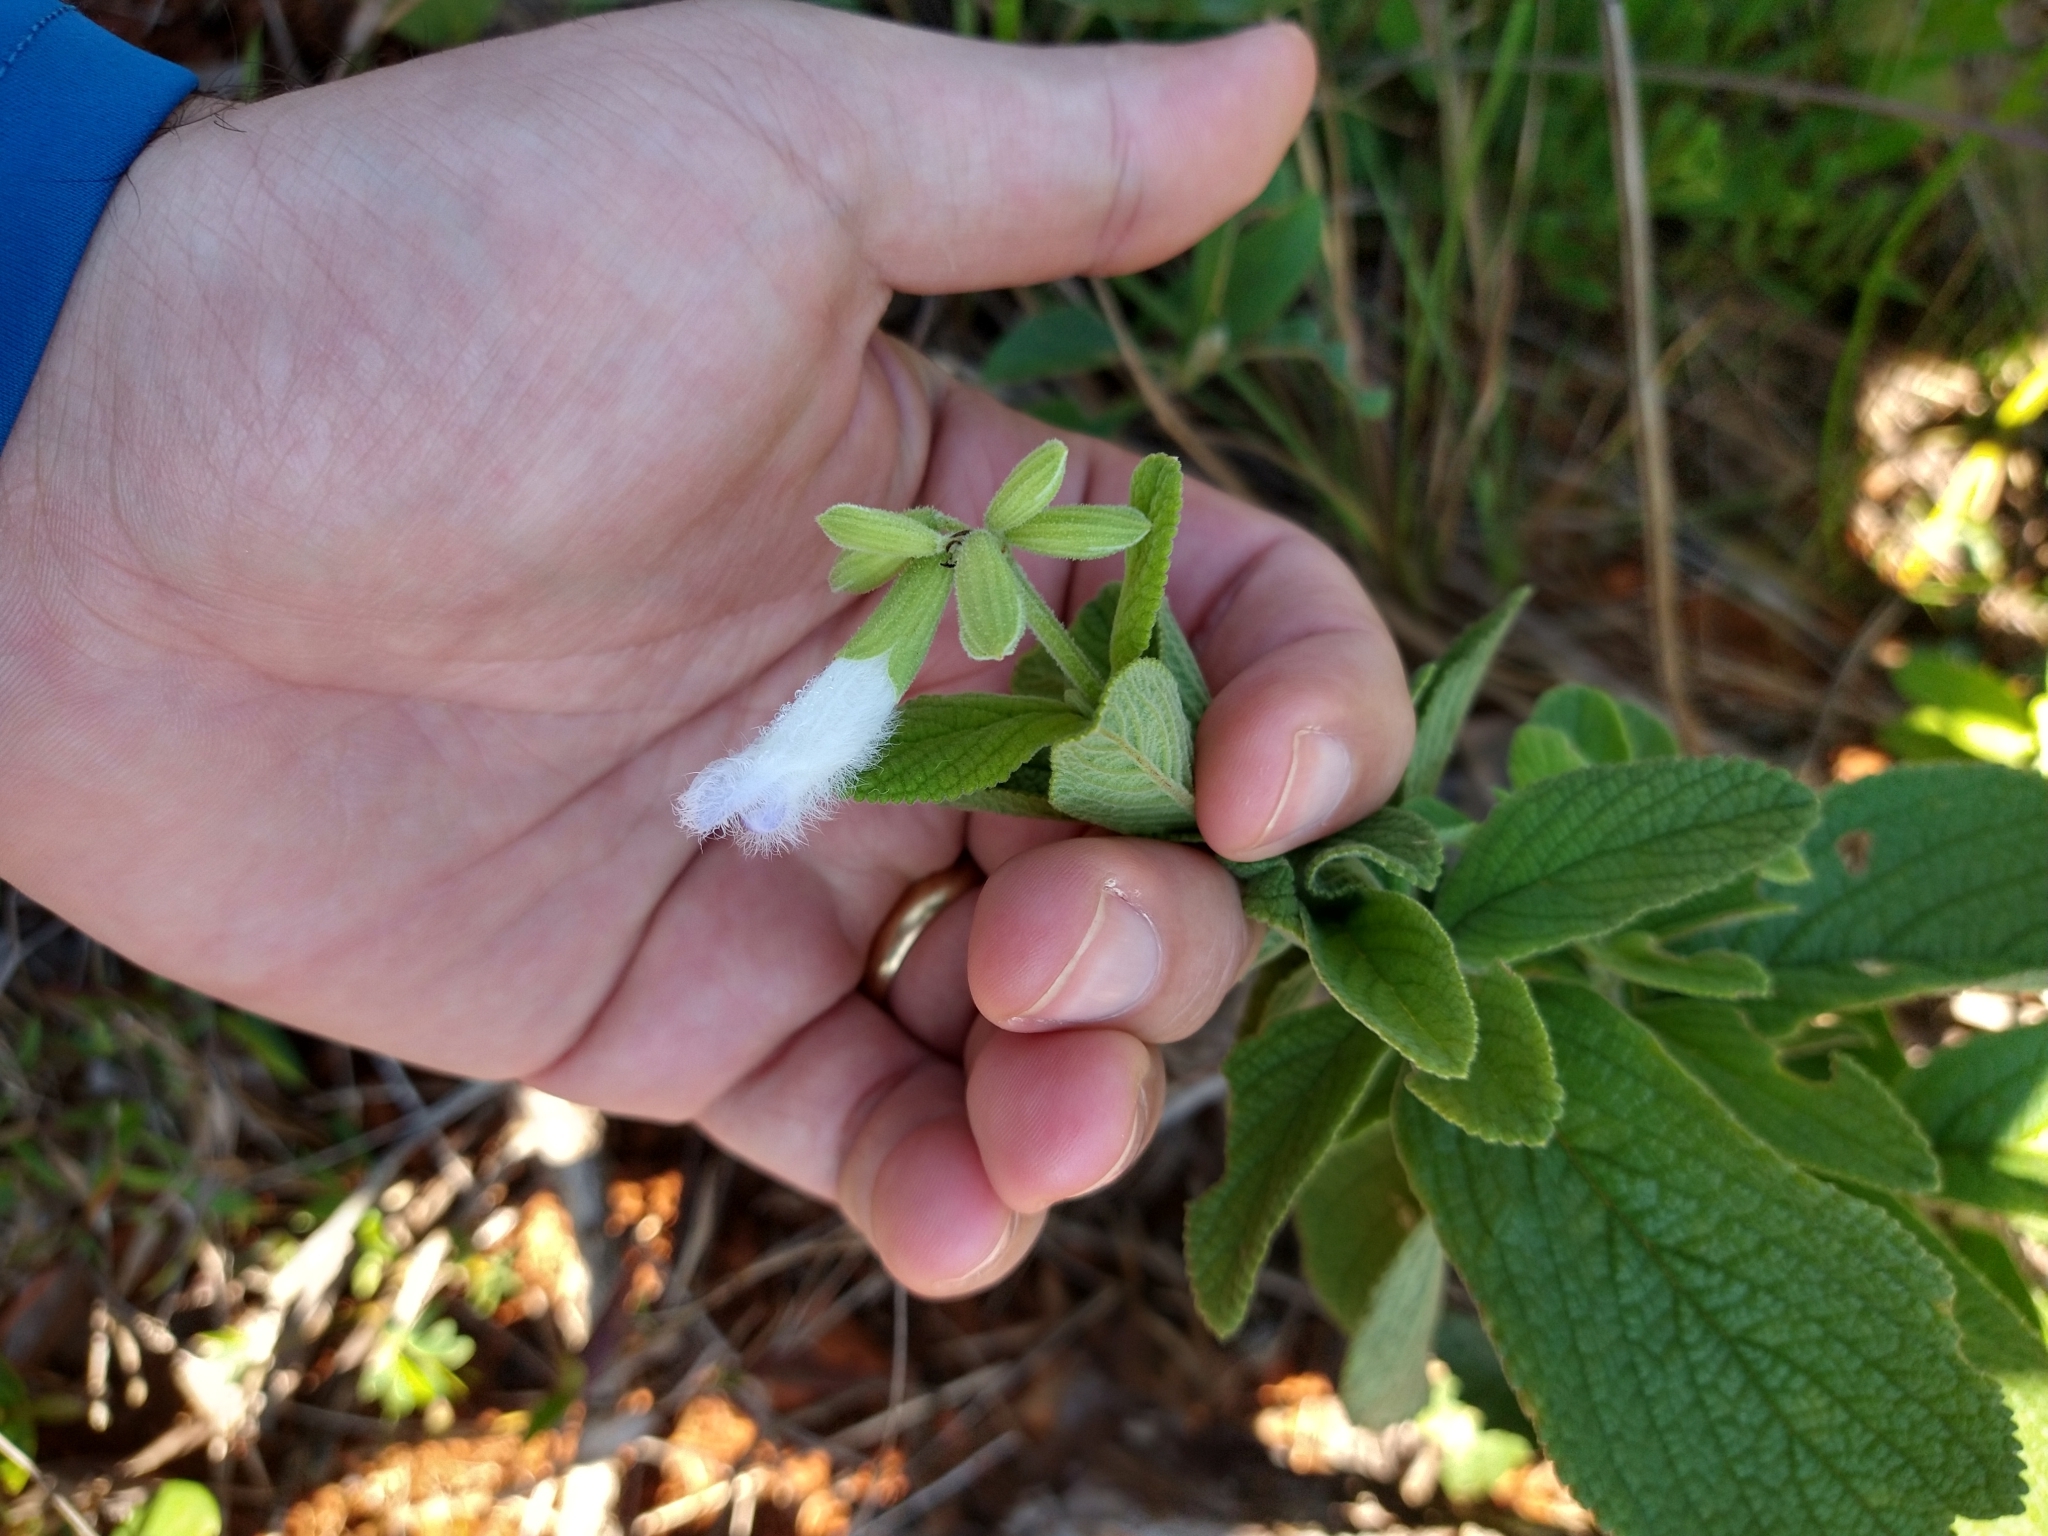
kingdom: Plantae
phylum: Tracheophyta
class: Magnoliopsida
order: Lamiales
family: Lamiaceae
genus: Salvia
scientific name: Salvia tomentella
